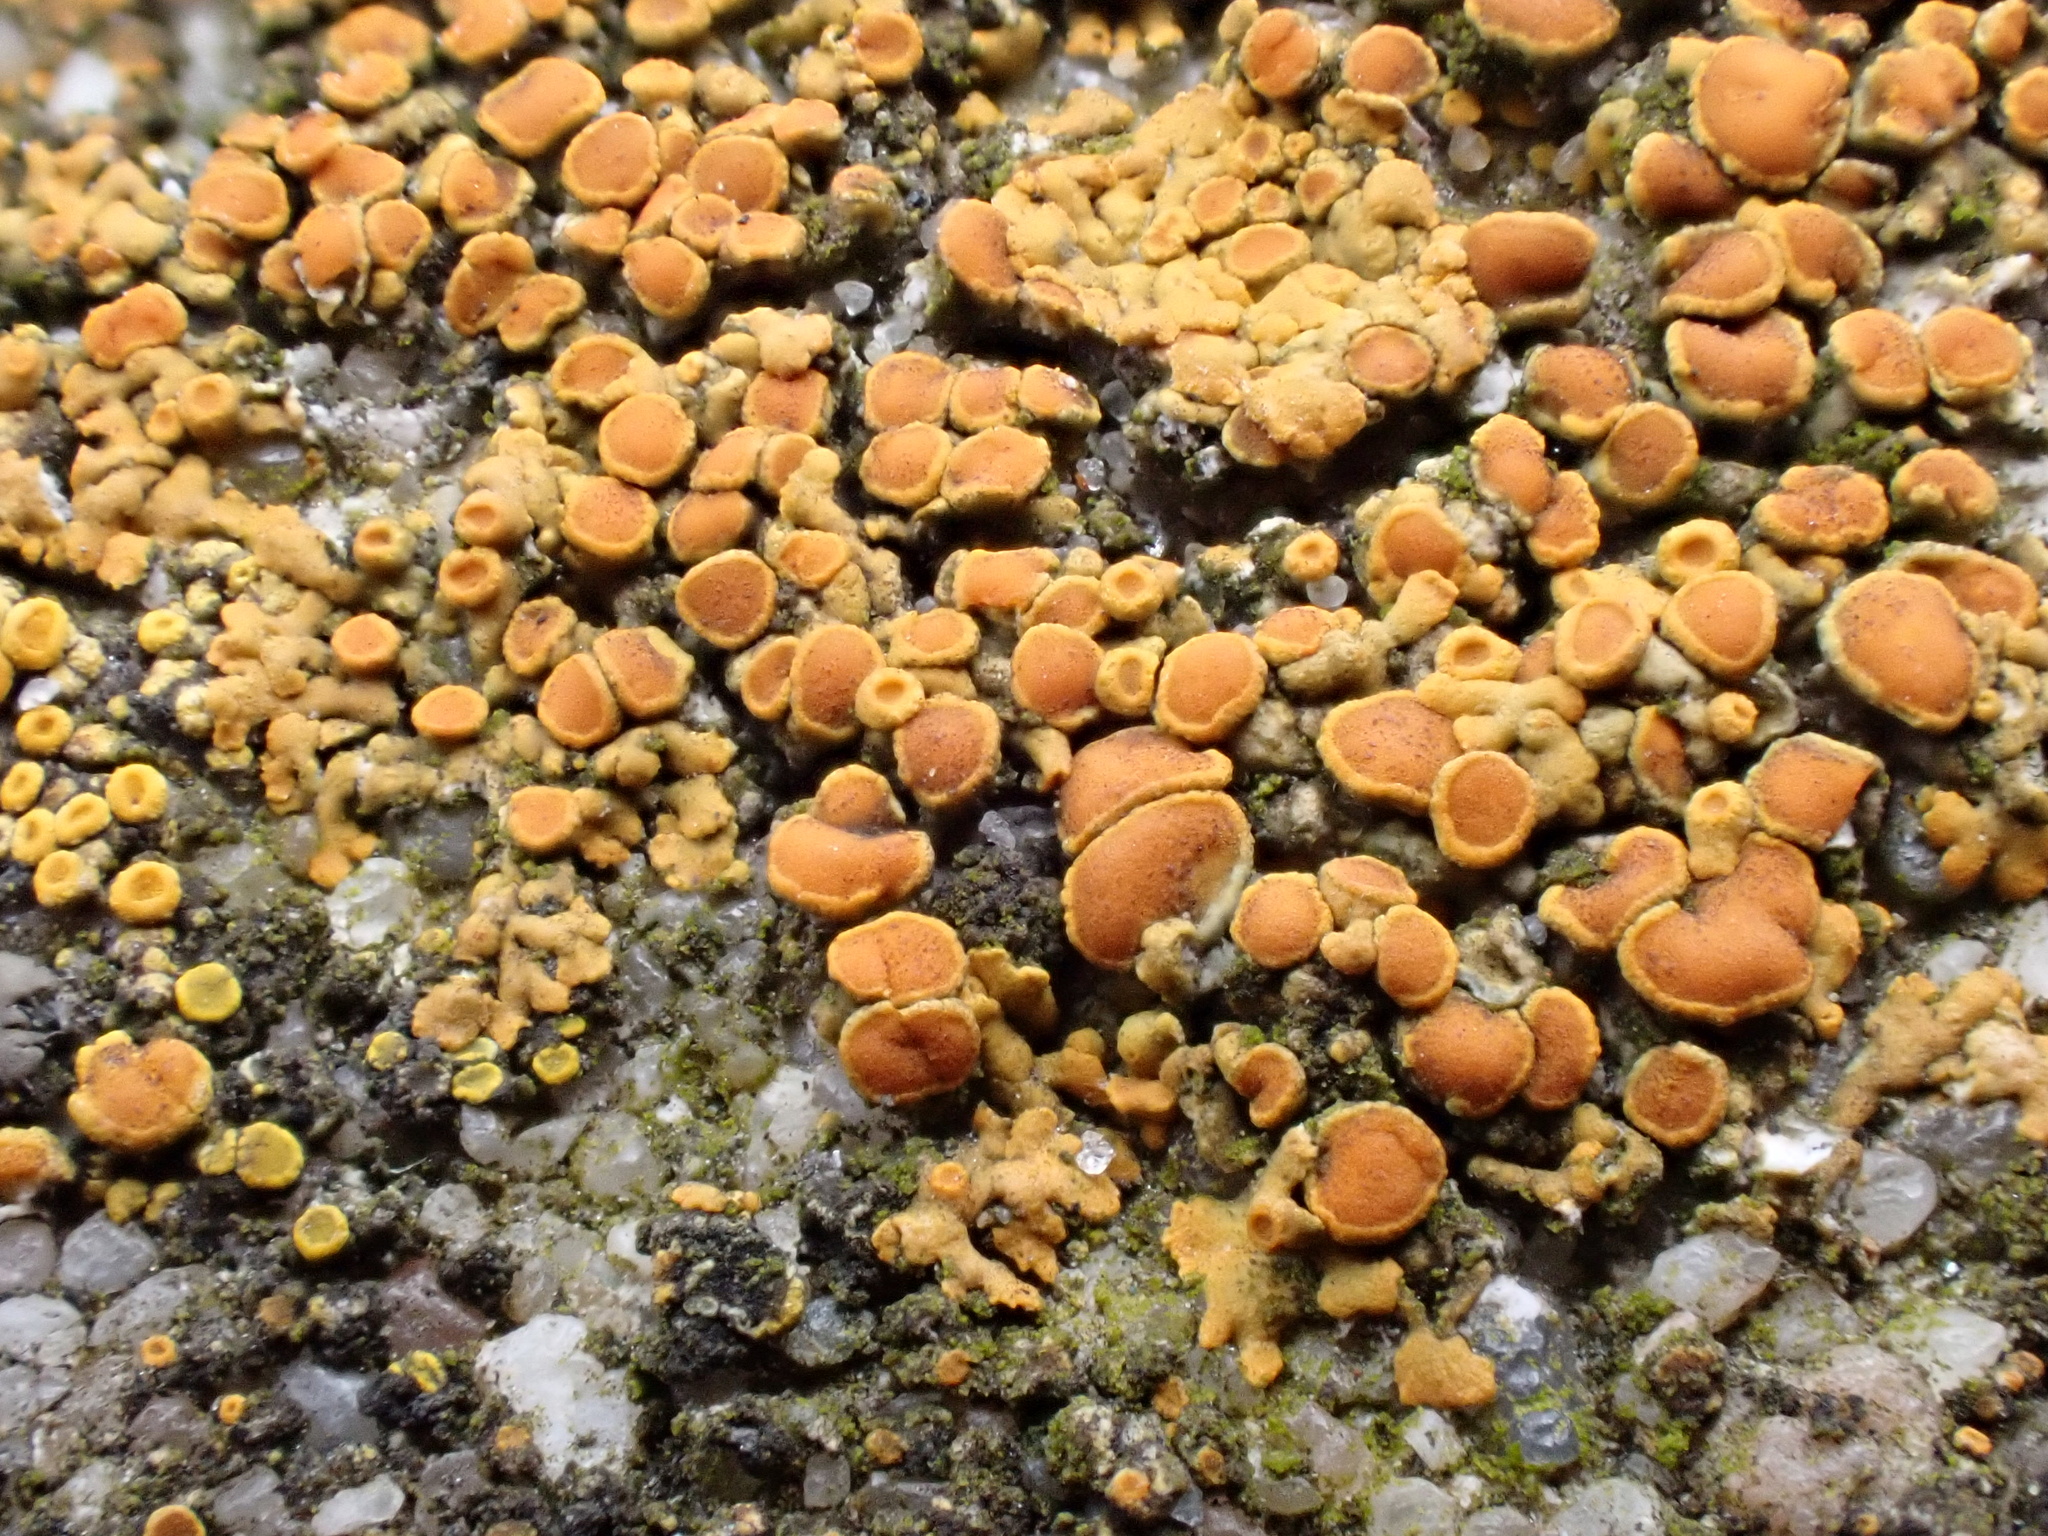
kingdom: Fungi
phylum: Ascomycota
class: Lecanoromycetes
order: Teloschistales
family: Teloschistaceae
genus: Calogaya
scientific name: Calogaya pusilla
